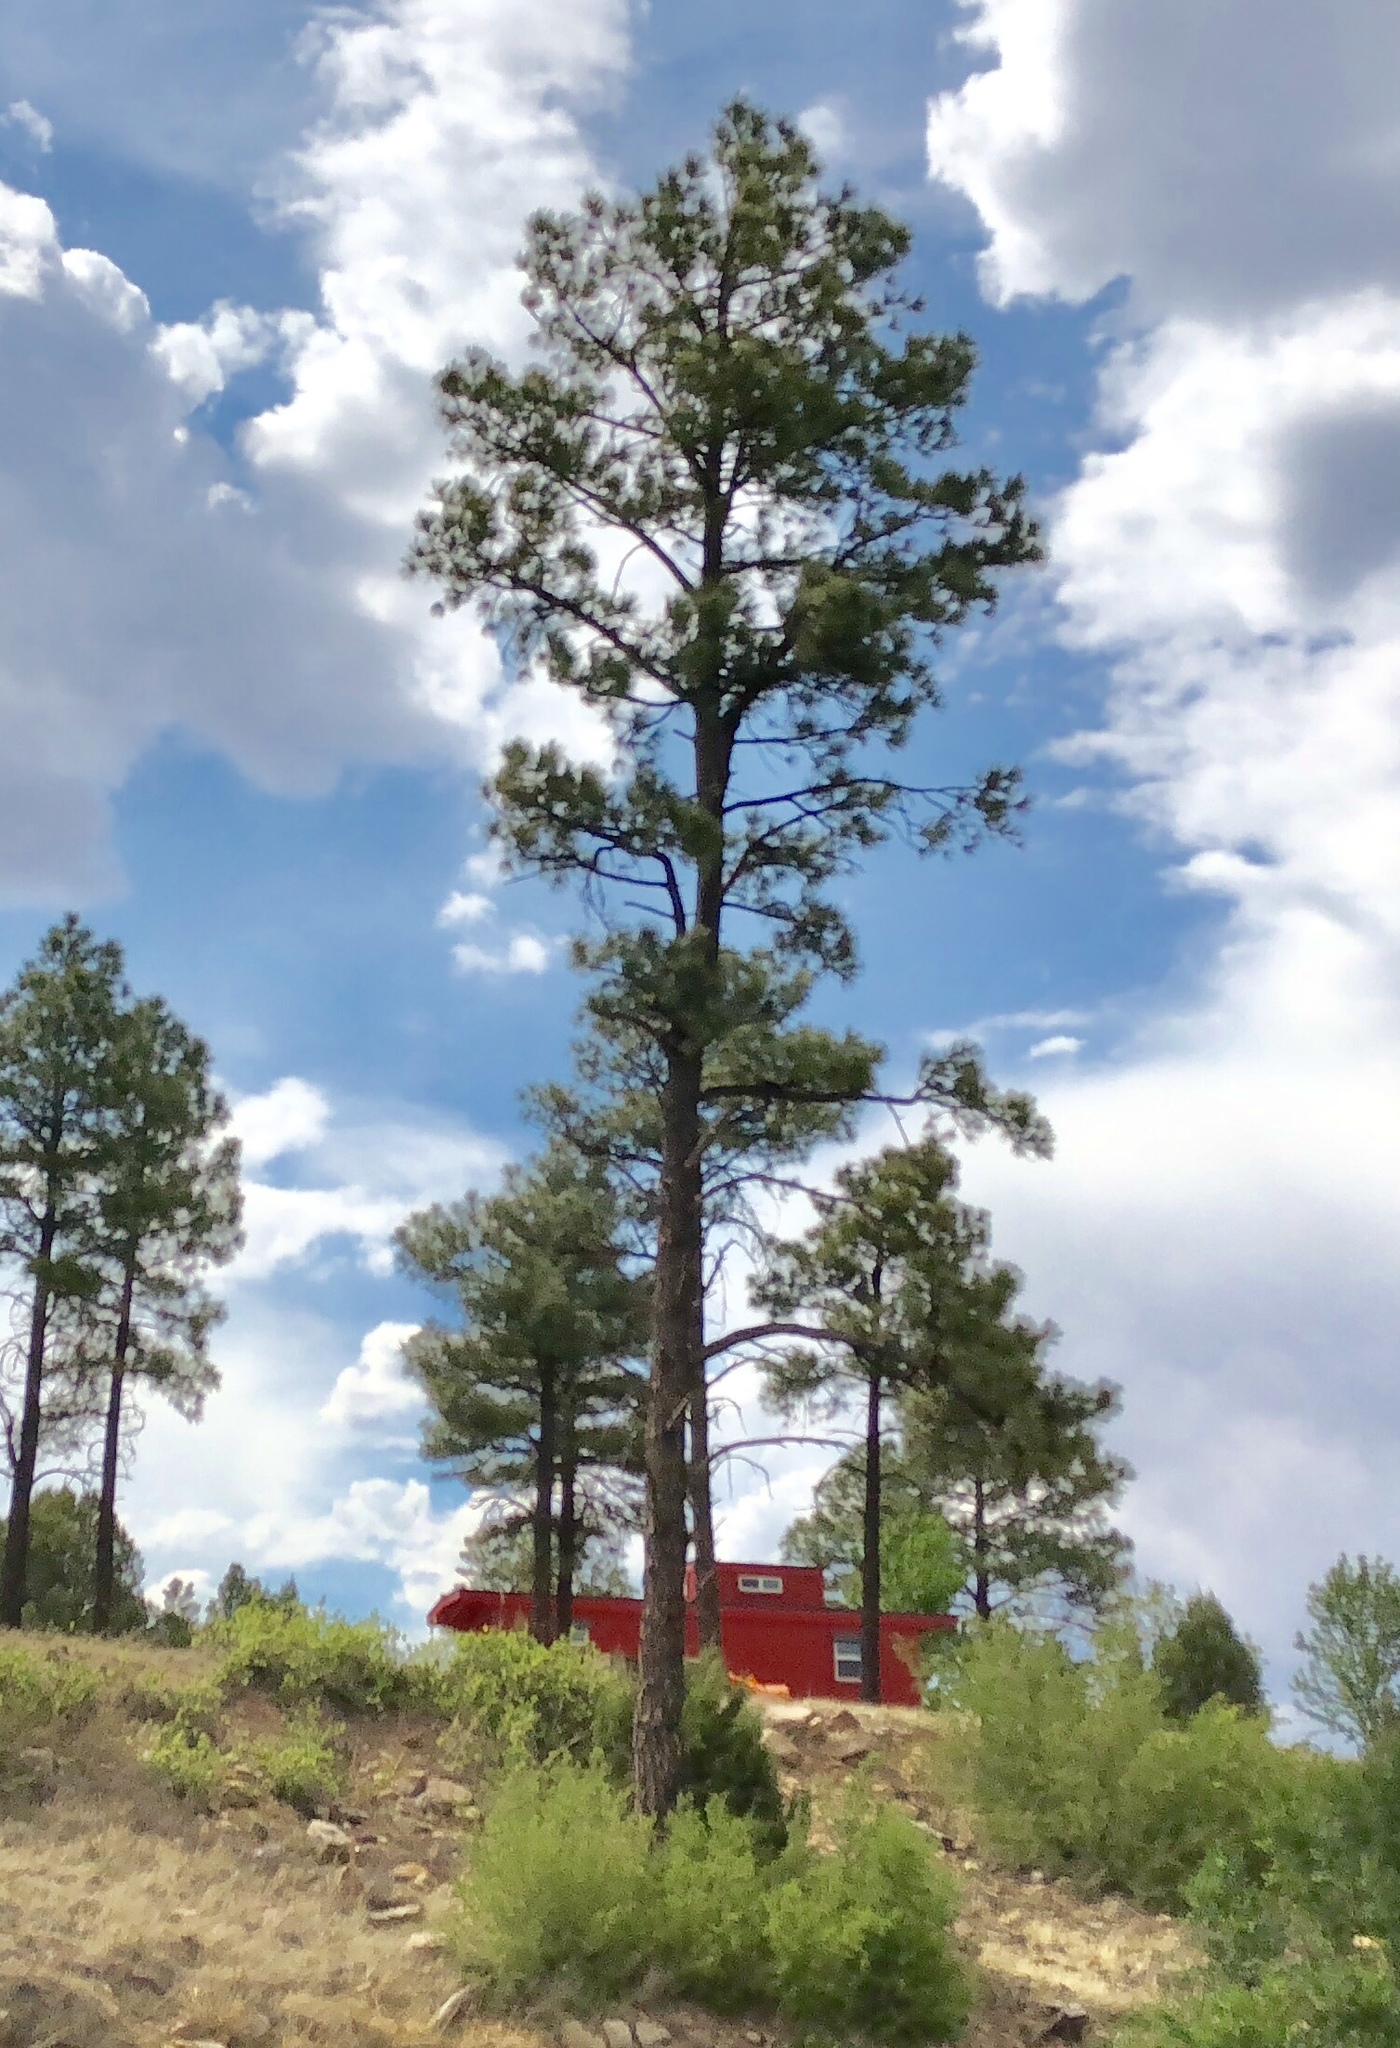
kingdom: Plantae
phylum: Tracheophyta
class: Pinopsida
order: Pinales
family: Pinaceae
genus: Pinus
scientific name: Pinus ponderosa
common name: Western yellow-pine
